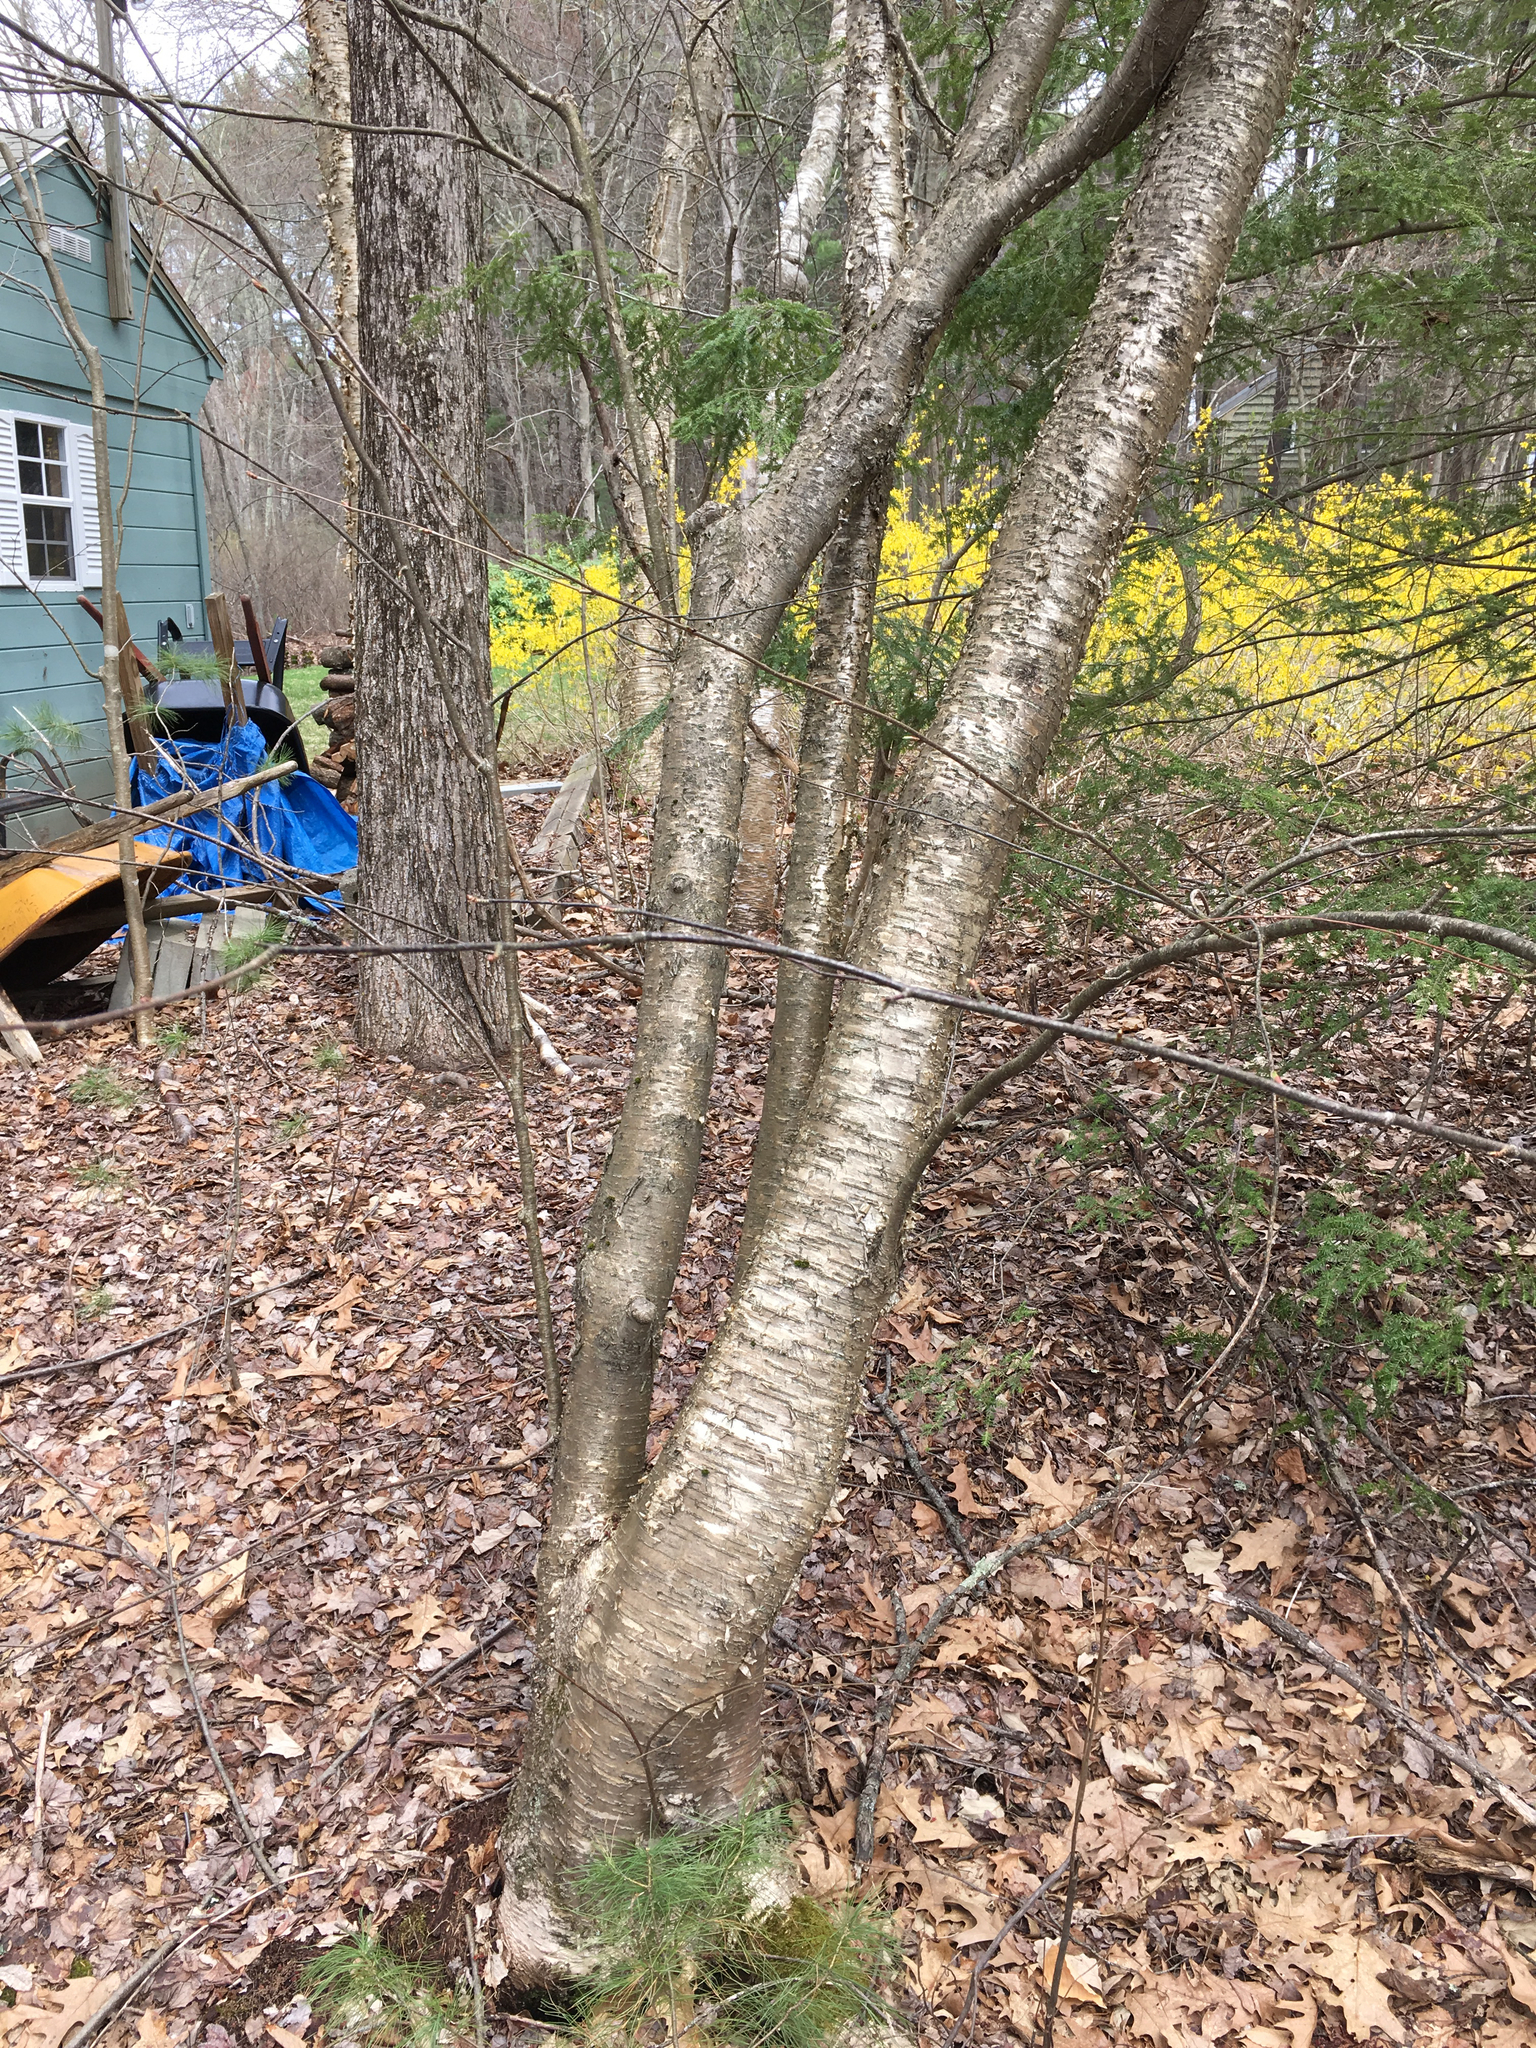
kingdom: Plantae
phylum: Tracheophyta
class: Magnoliopsida
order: Fagales
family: Betulaceae
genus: Betula
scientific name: Betula alleghaniensis
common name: Yellow birch
